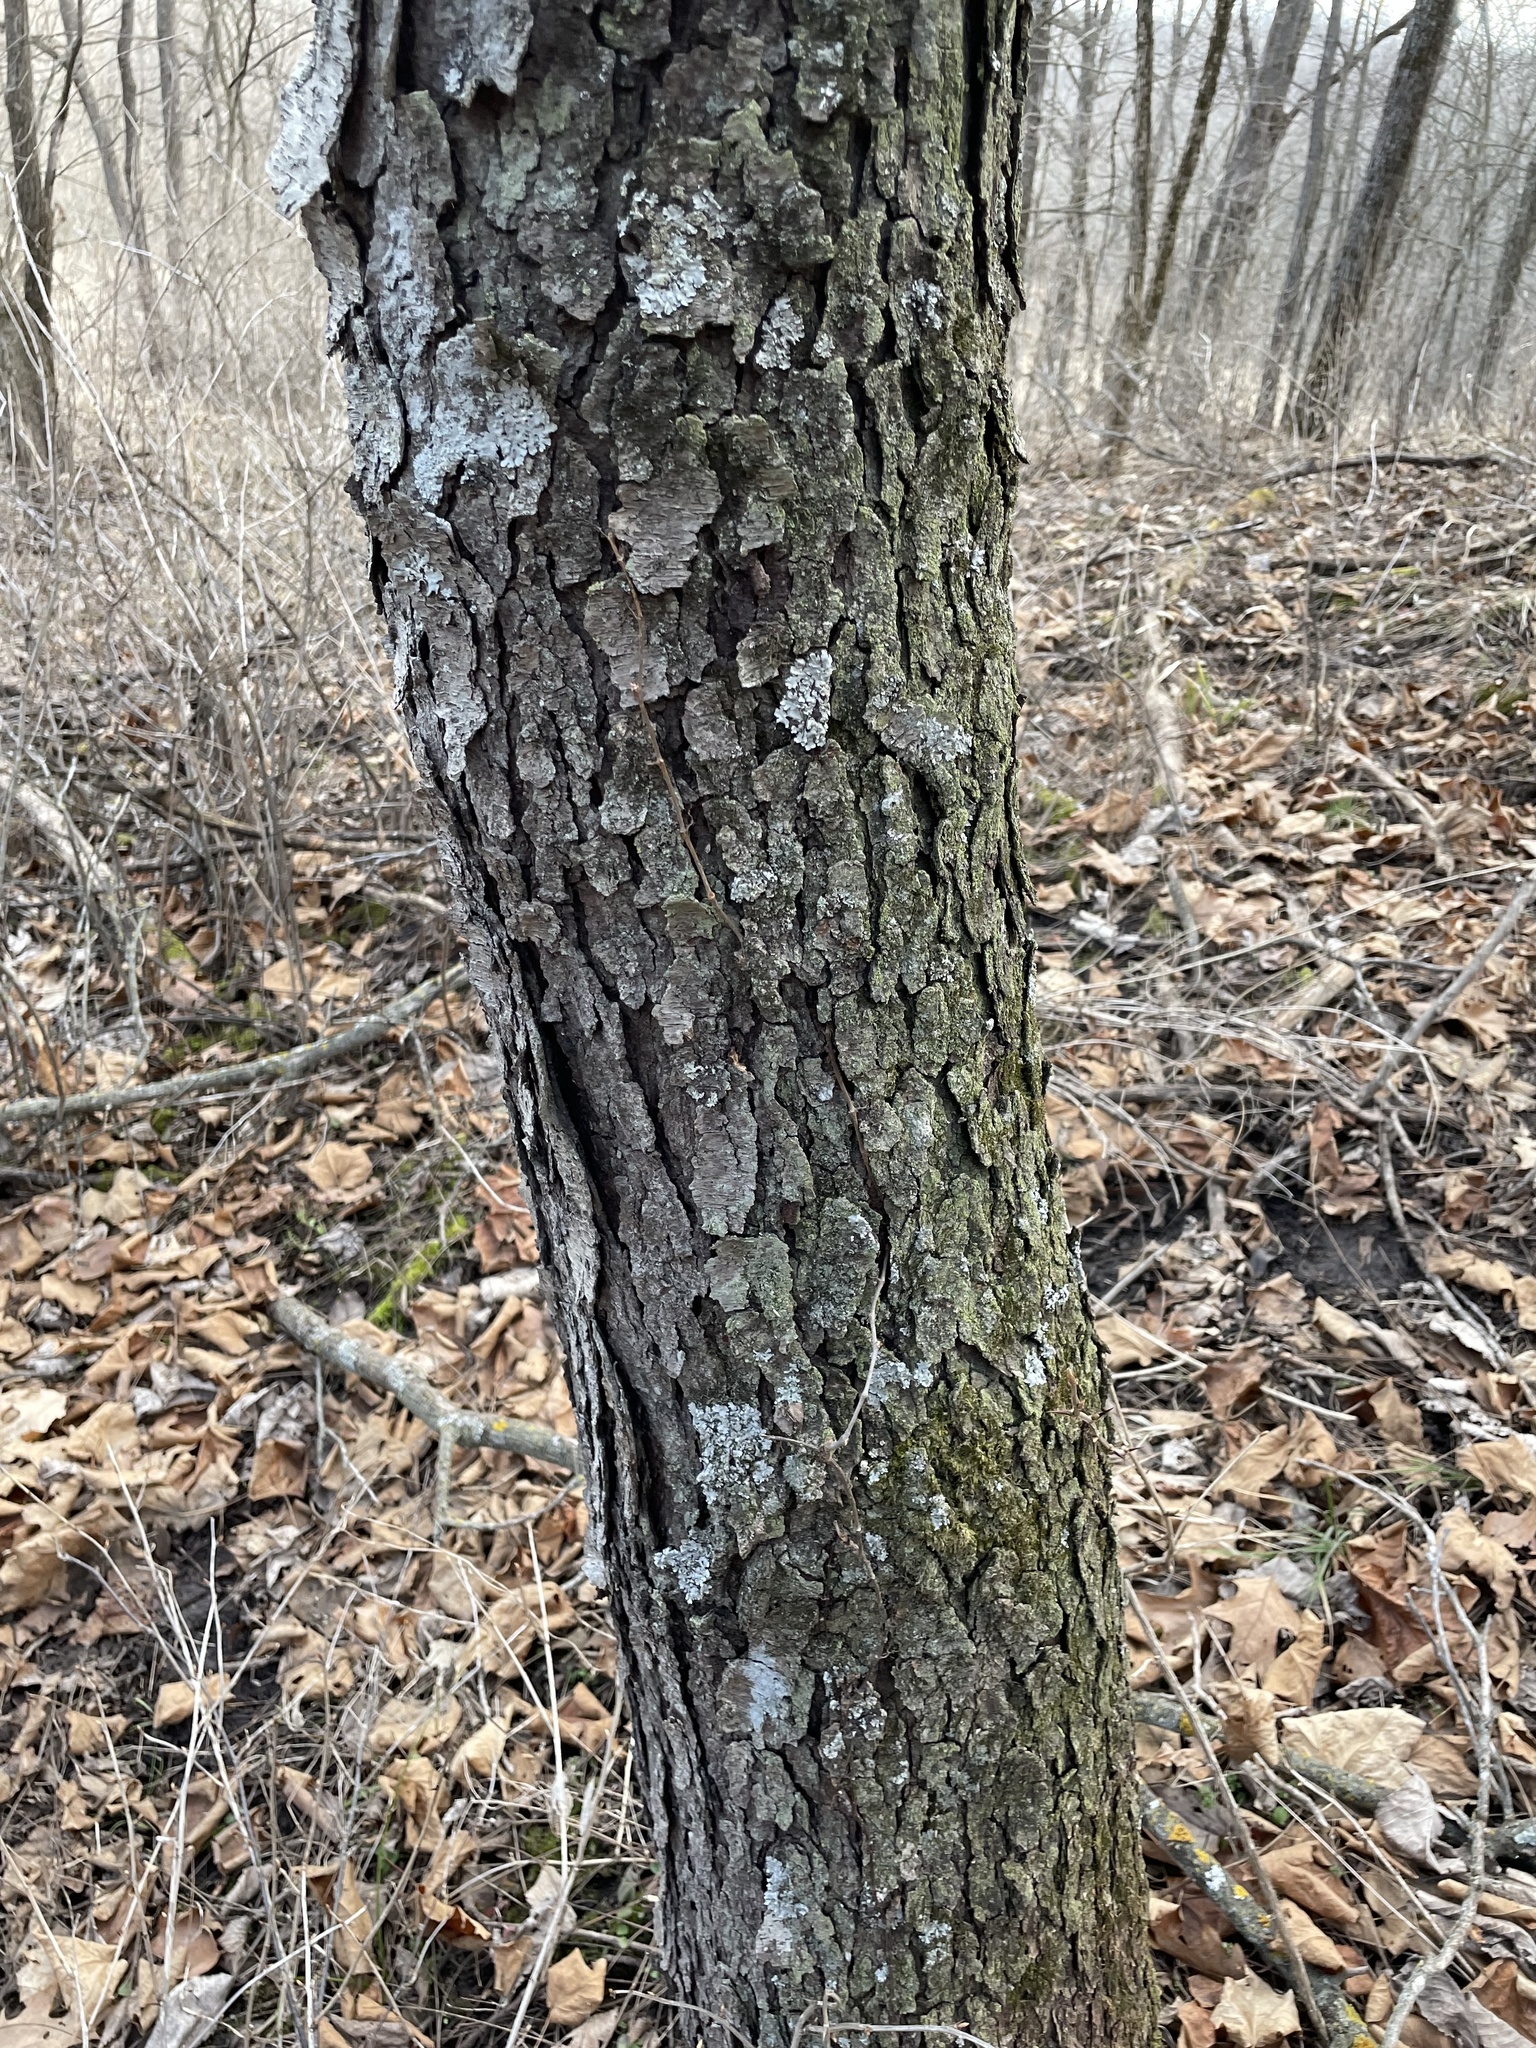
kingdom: Plantae
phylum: Tracheophyta
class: Magnoliopsida
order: Rosales
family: Rosaceae
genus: Prunus
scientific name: Prunus serotina
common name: Black cherry
